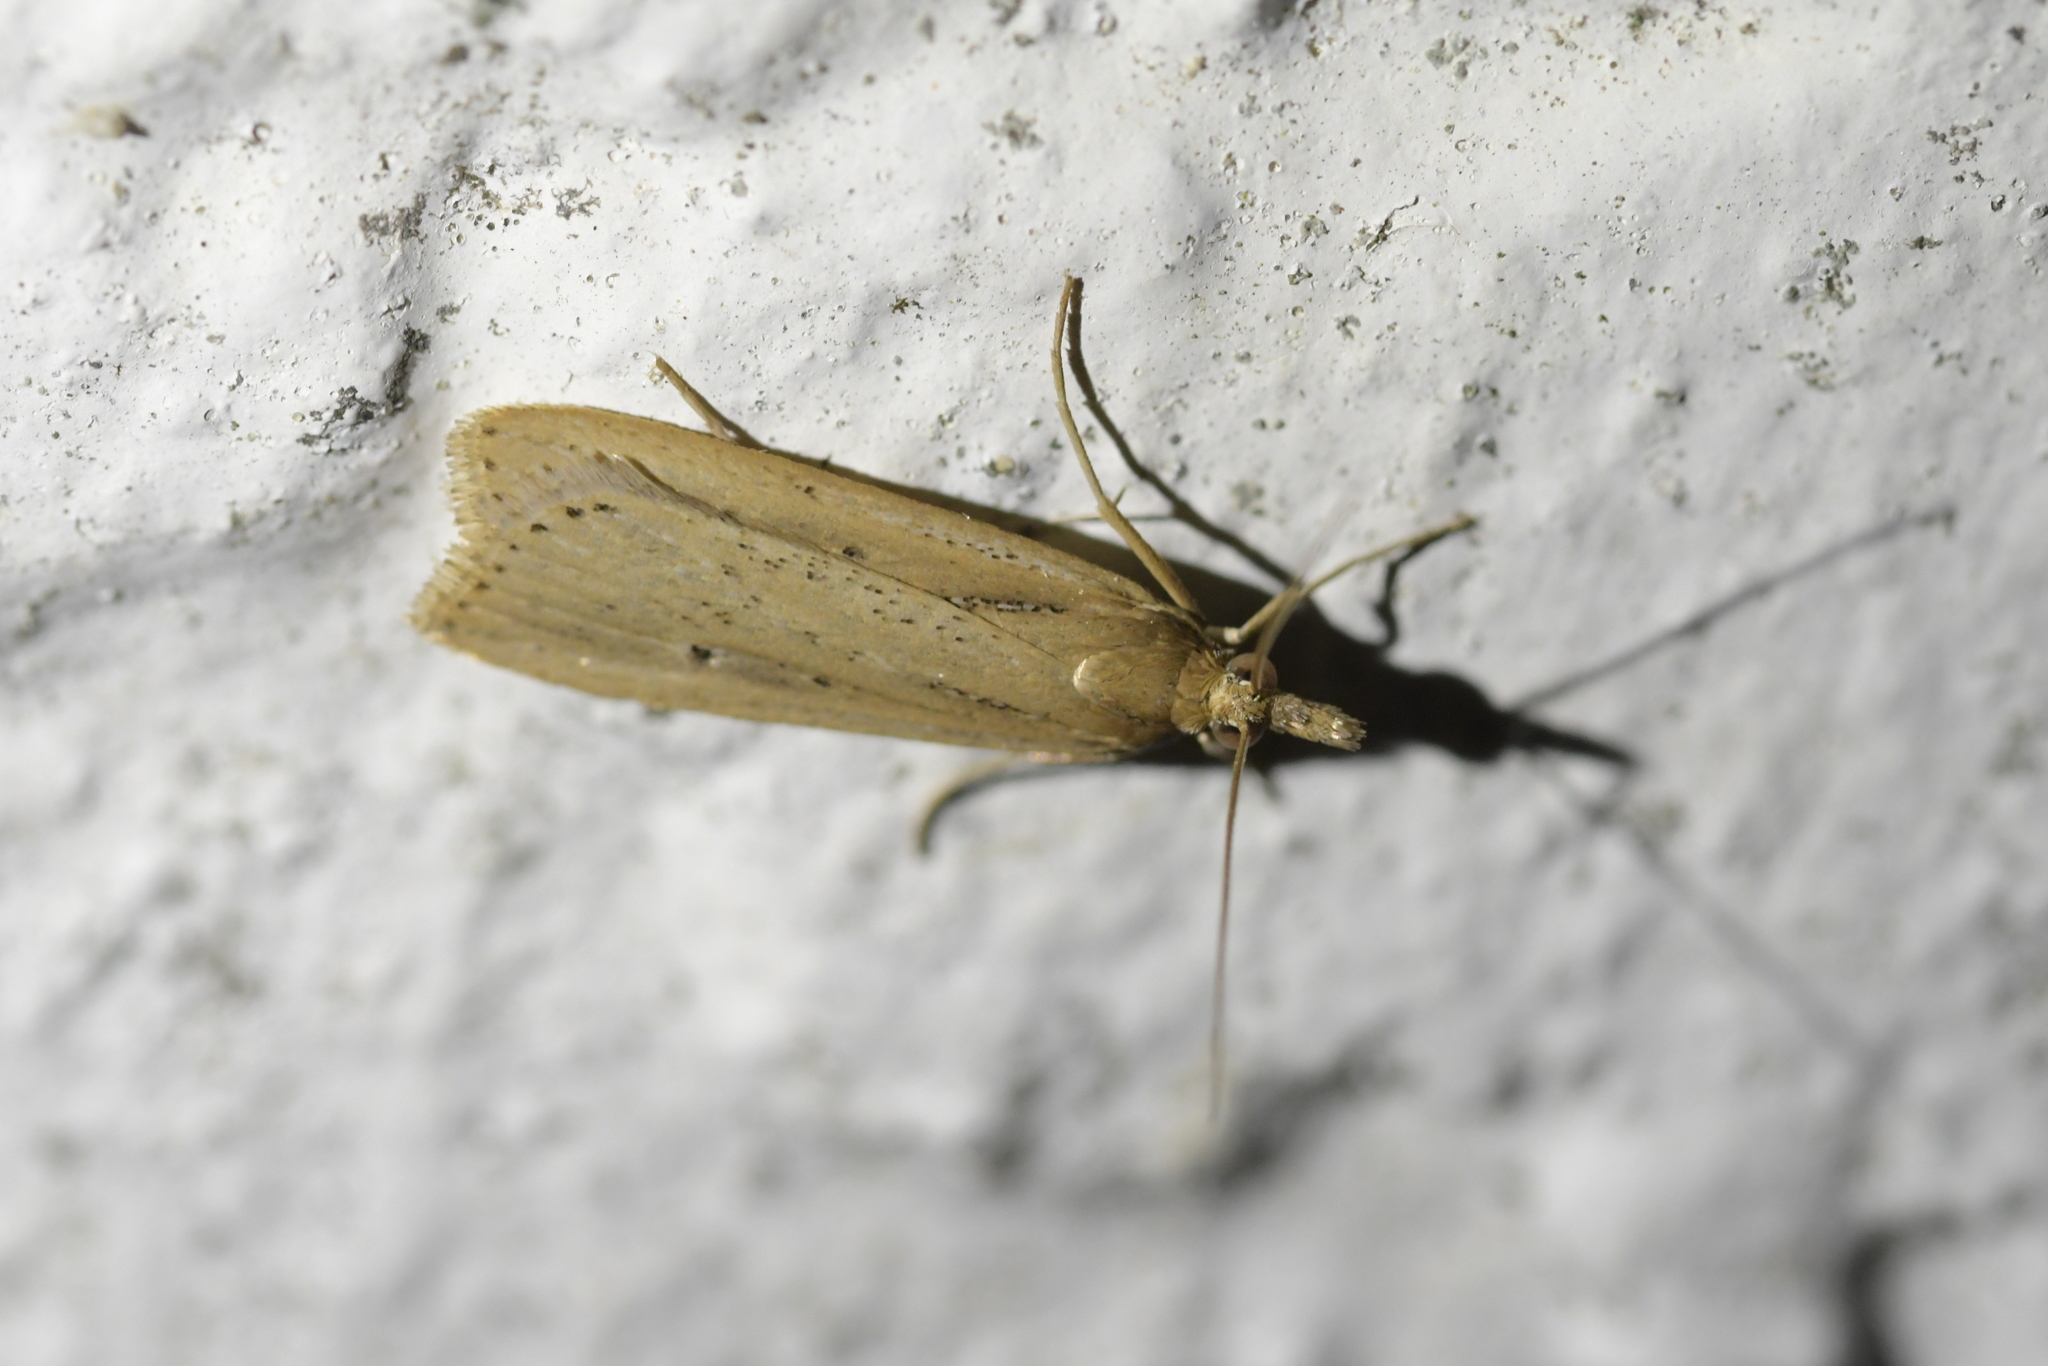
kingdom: Animalia
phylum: Arthropoda
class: Insecta
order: Lepidoptera
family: Crambidae
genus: Eudonia
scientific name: Eudonia sabulosella
